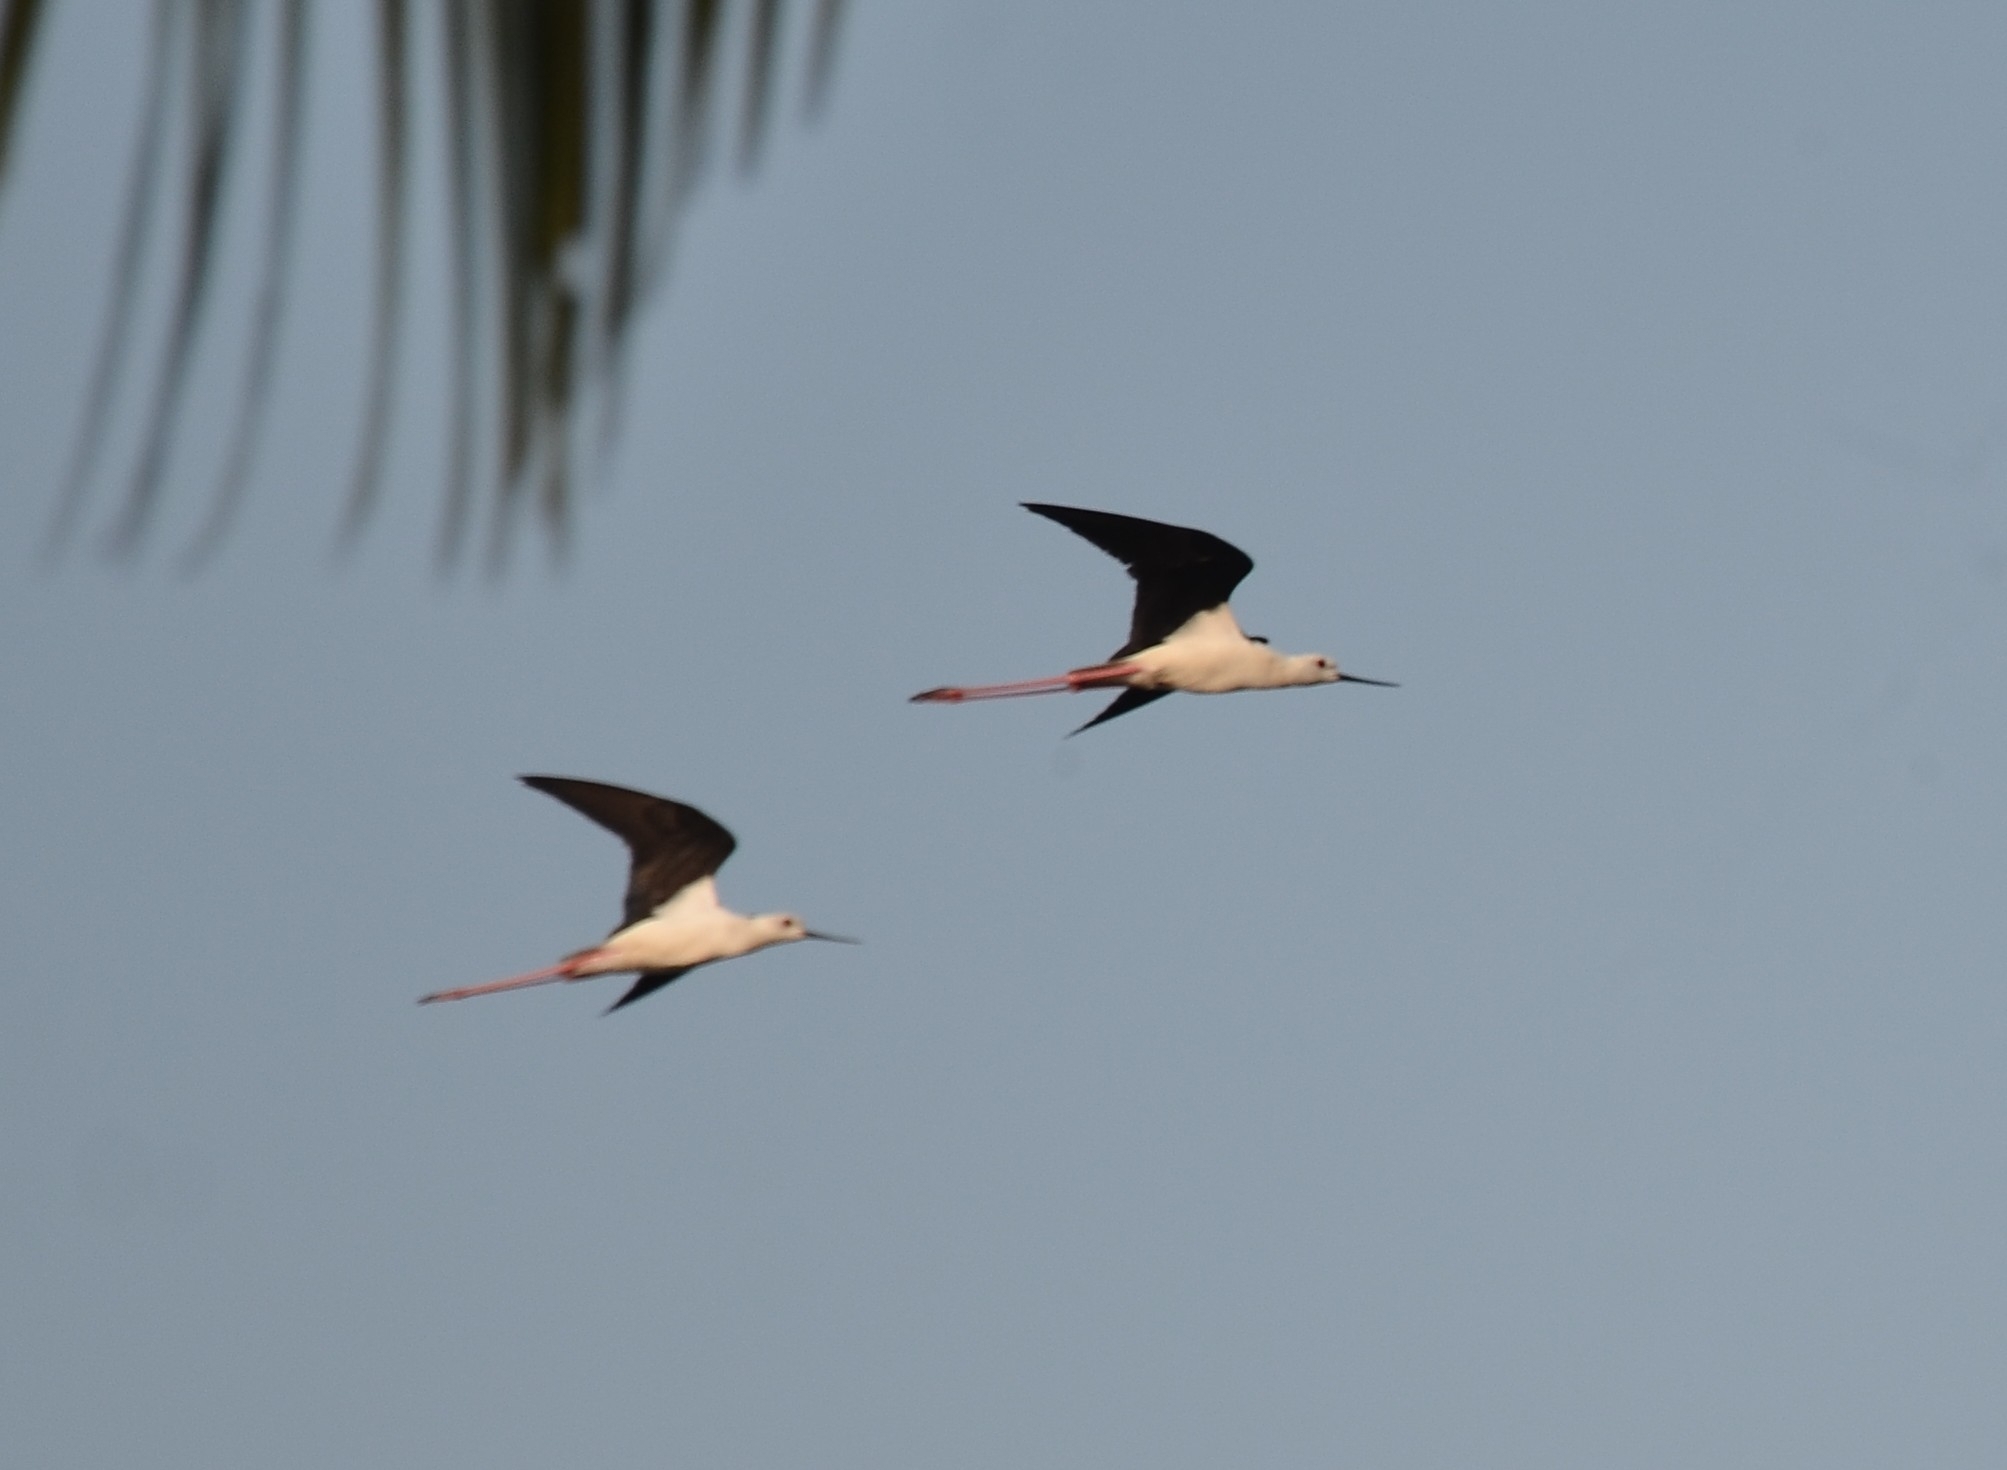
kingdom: Animalia
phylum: Chordata
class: Aves
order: Charadriiformes
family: Recurvirostridae
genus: Himantopus
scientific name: Himantopus himantopus
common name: Black-winged stilt
